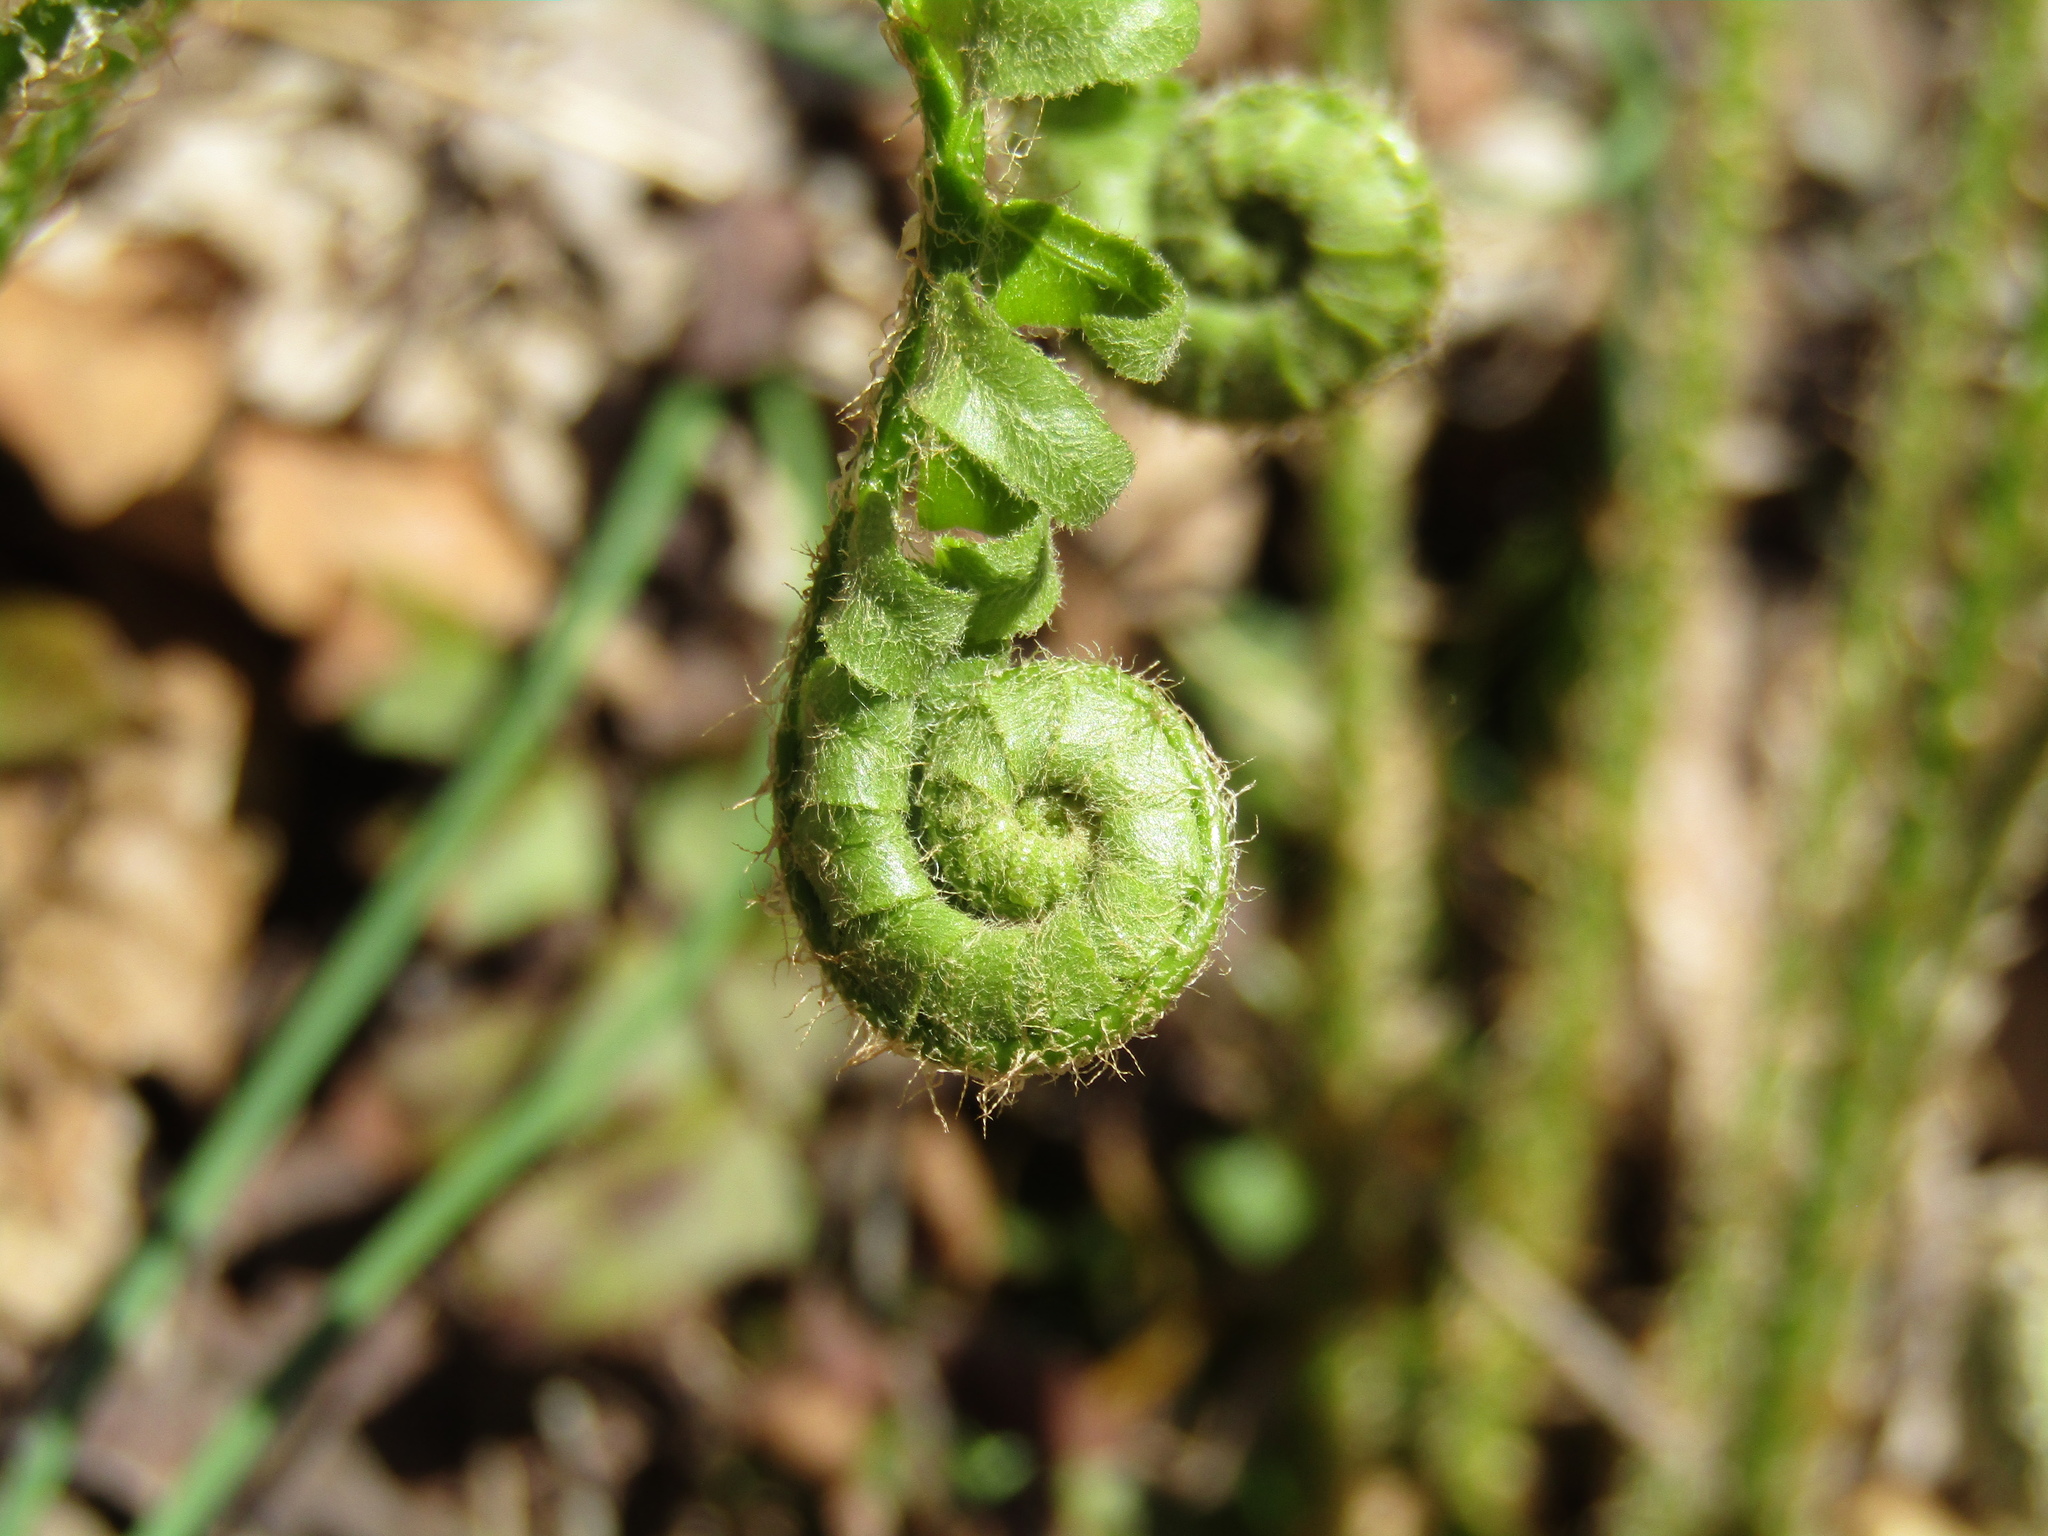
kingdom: Plantae
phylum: Tracheophyta
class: Polypodiopsida
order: Polypodiales
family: Dryopteridaceae
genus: Polystichum
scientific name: Polystichum acrostichoides
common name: Christmas fern
